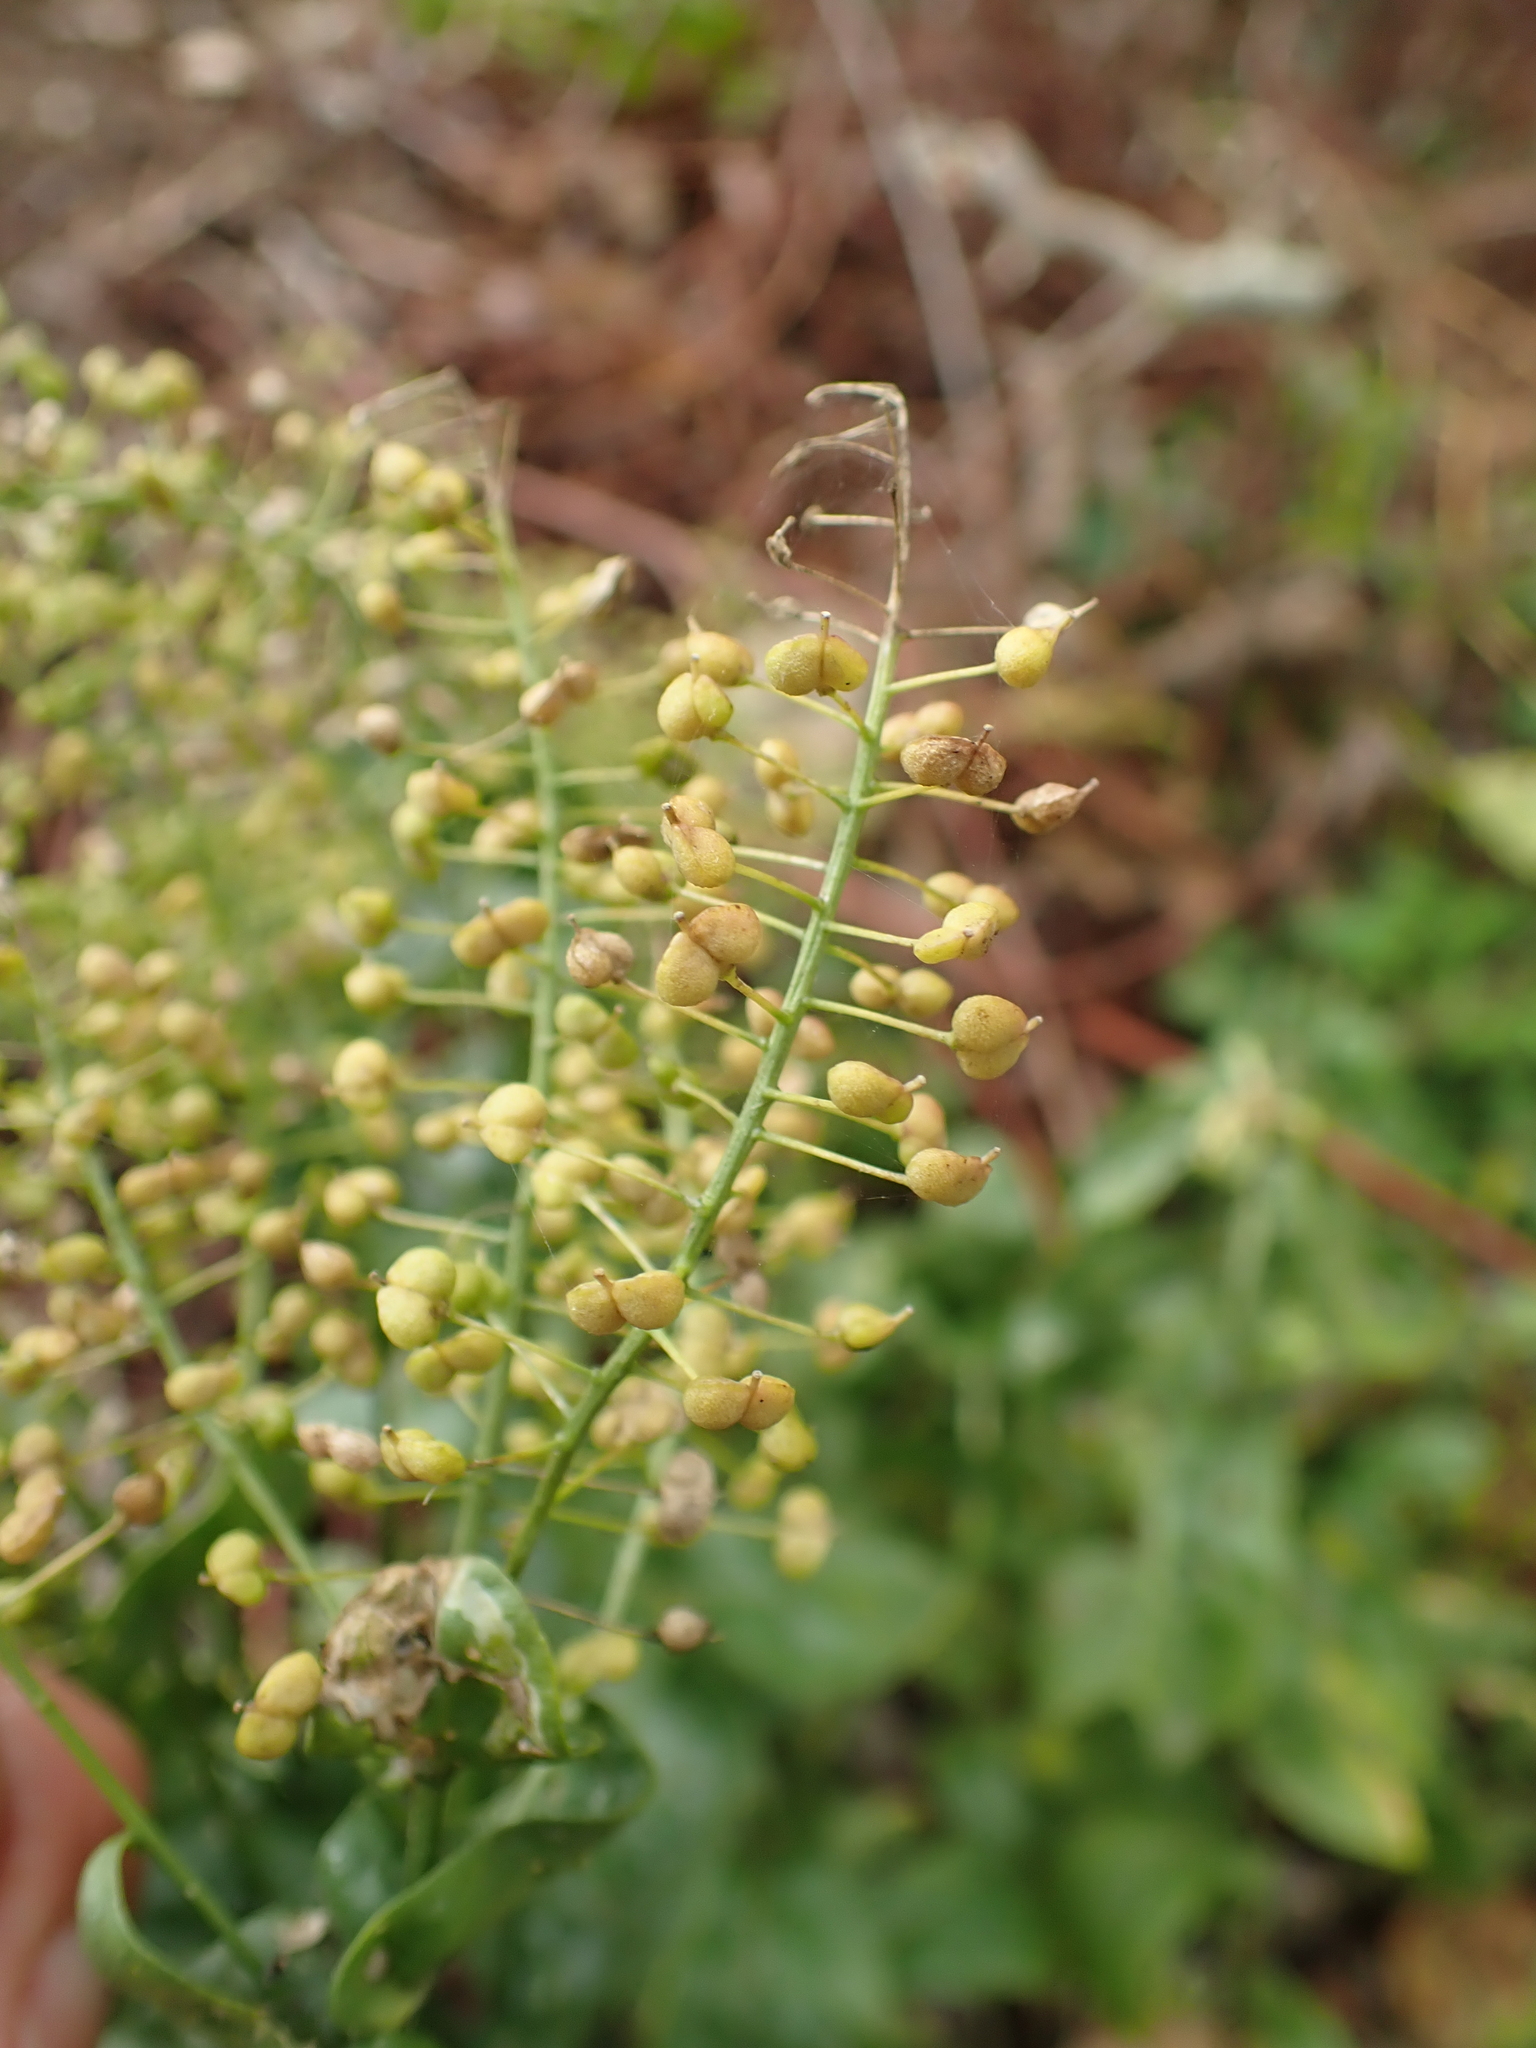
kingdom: Plantae
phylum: Tracheophyta
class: Magnoliopsida
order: Brassicales
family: Brassicaceae
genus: Lepidium
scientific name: Lepidium draba
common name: Hoary cress
